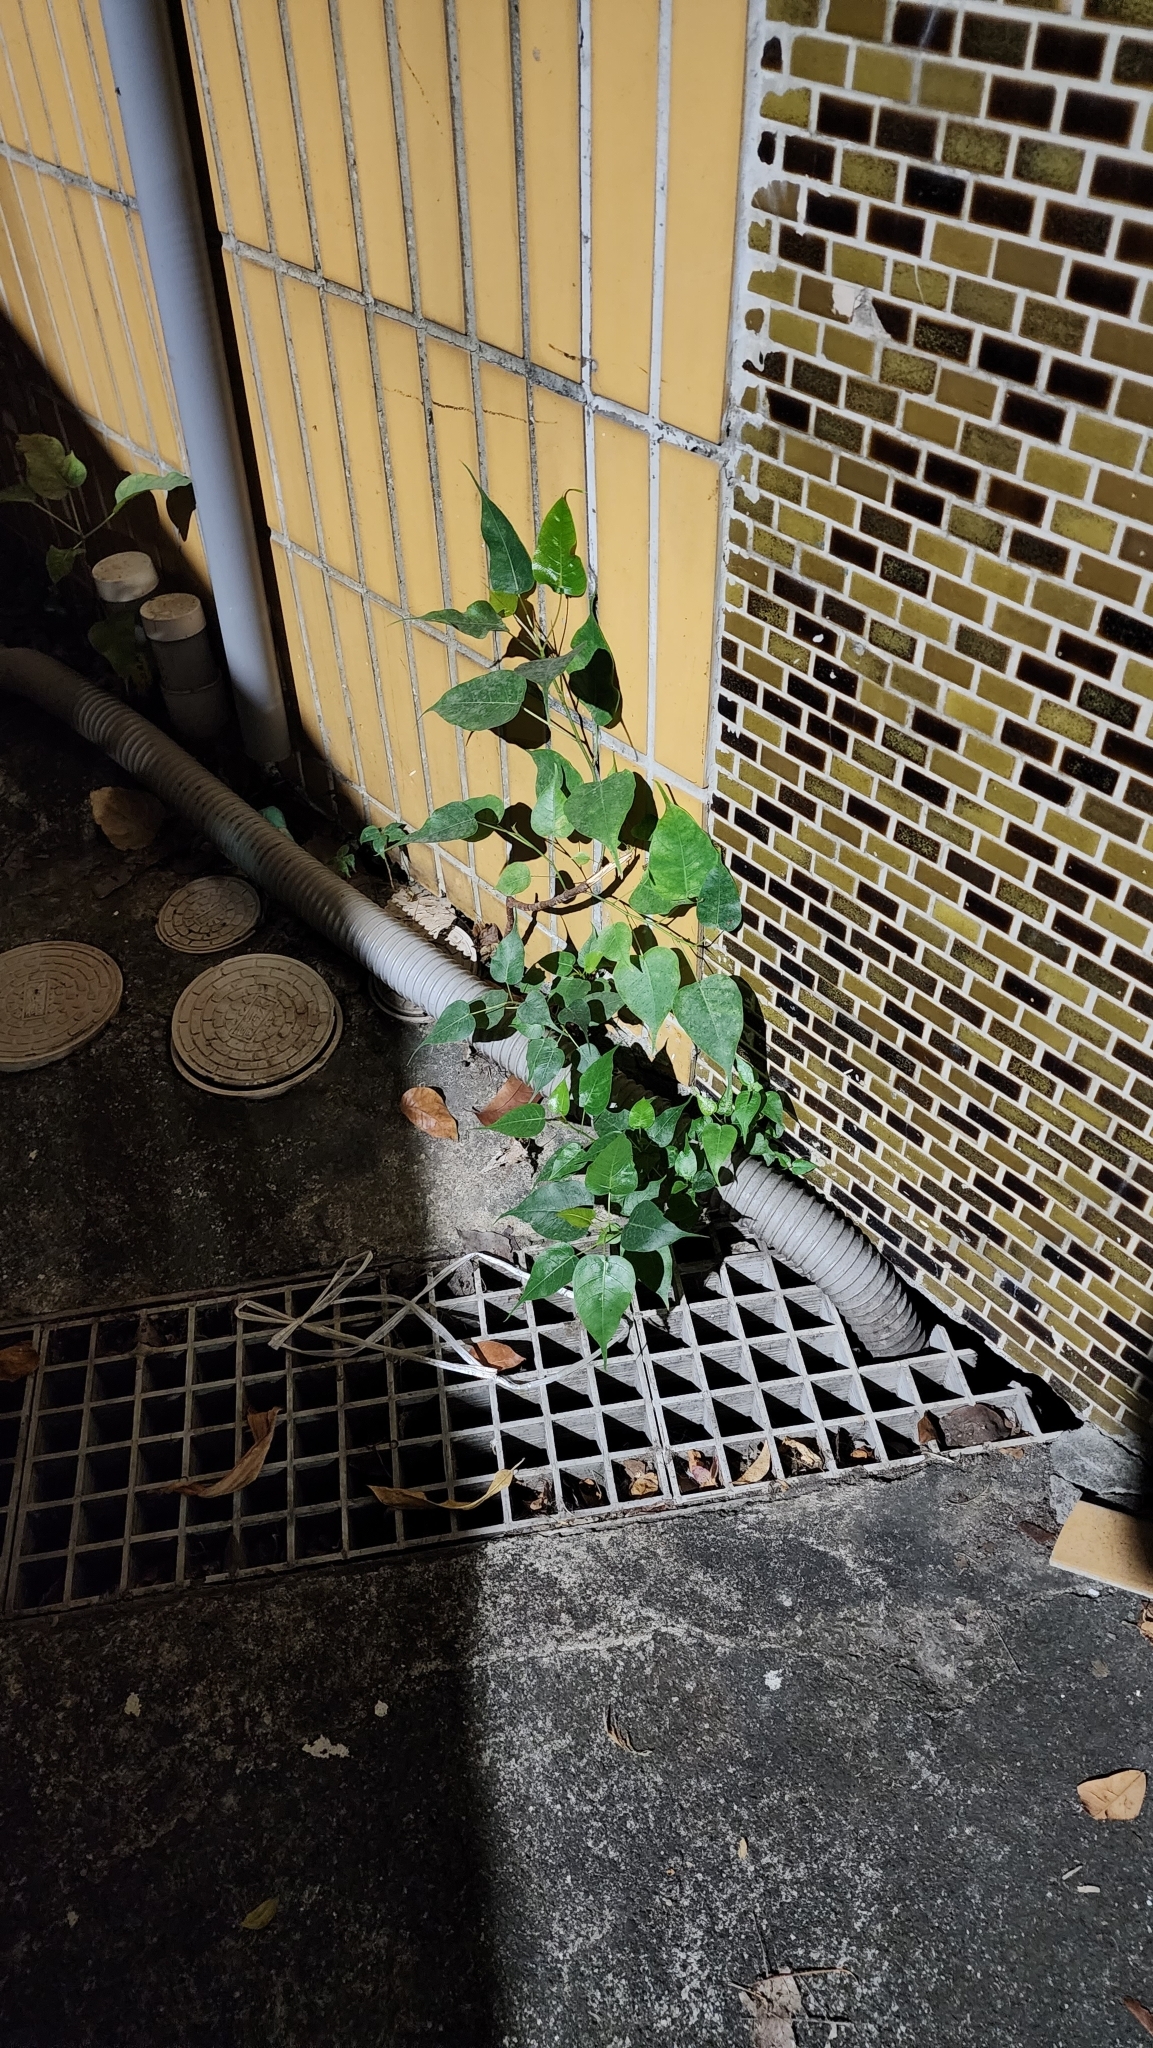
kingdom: Plantae
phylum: Tracheophyta
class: Magnoliopsida
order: Rosales
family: Moraceae
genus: Ficus
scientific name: Ficus religiosa
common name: Bodhi tree
